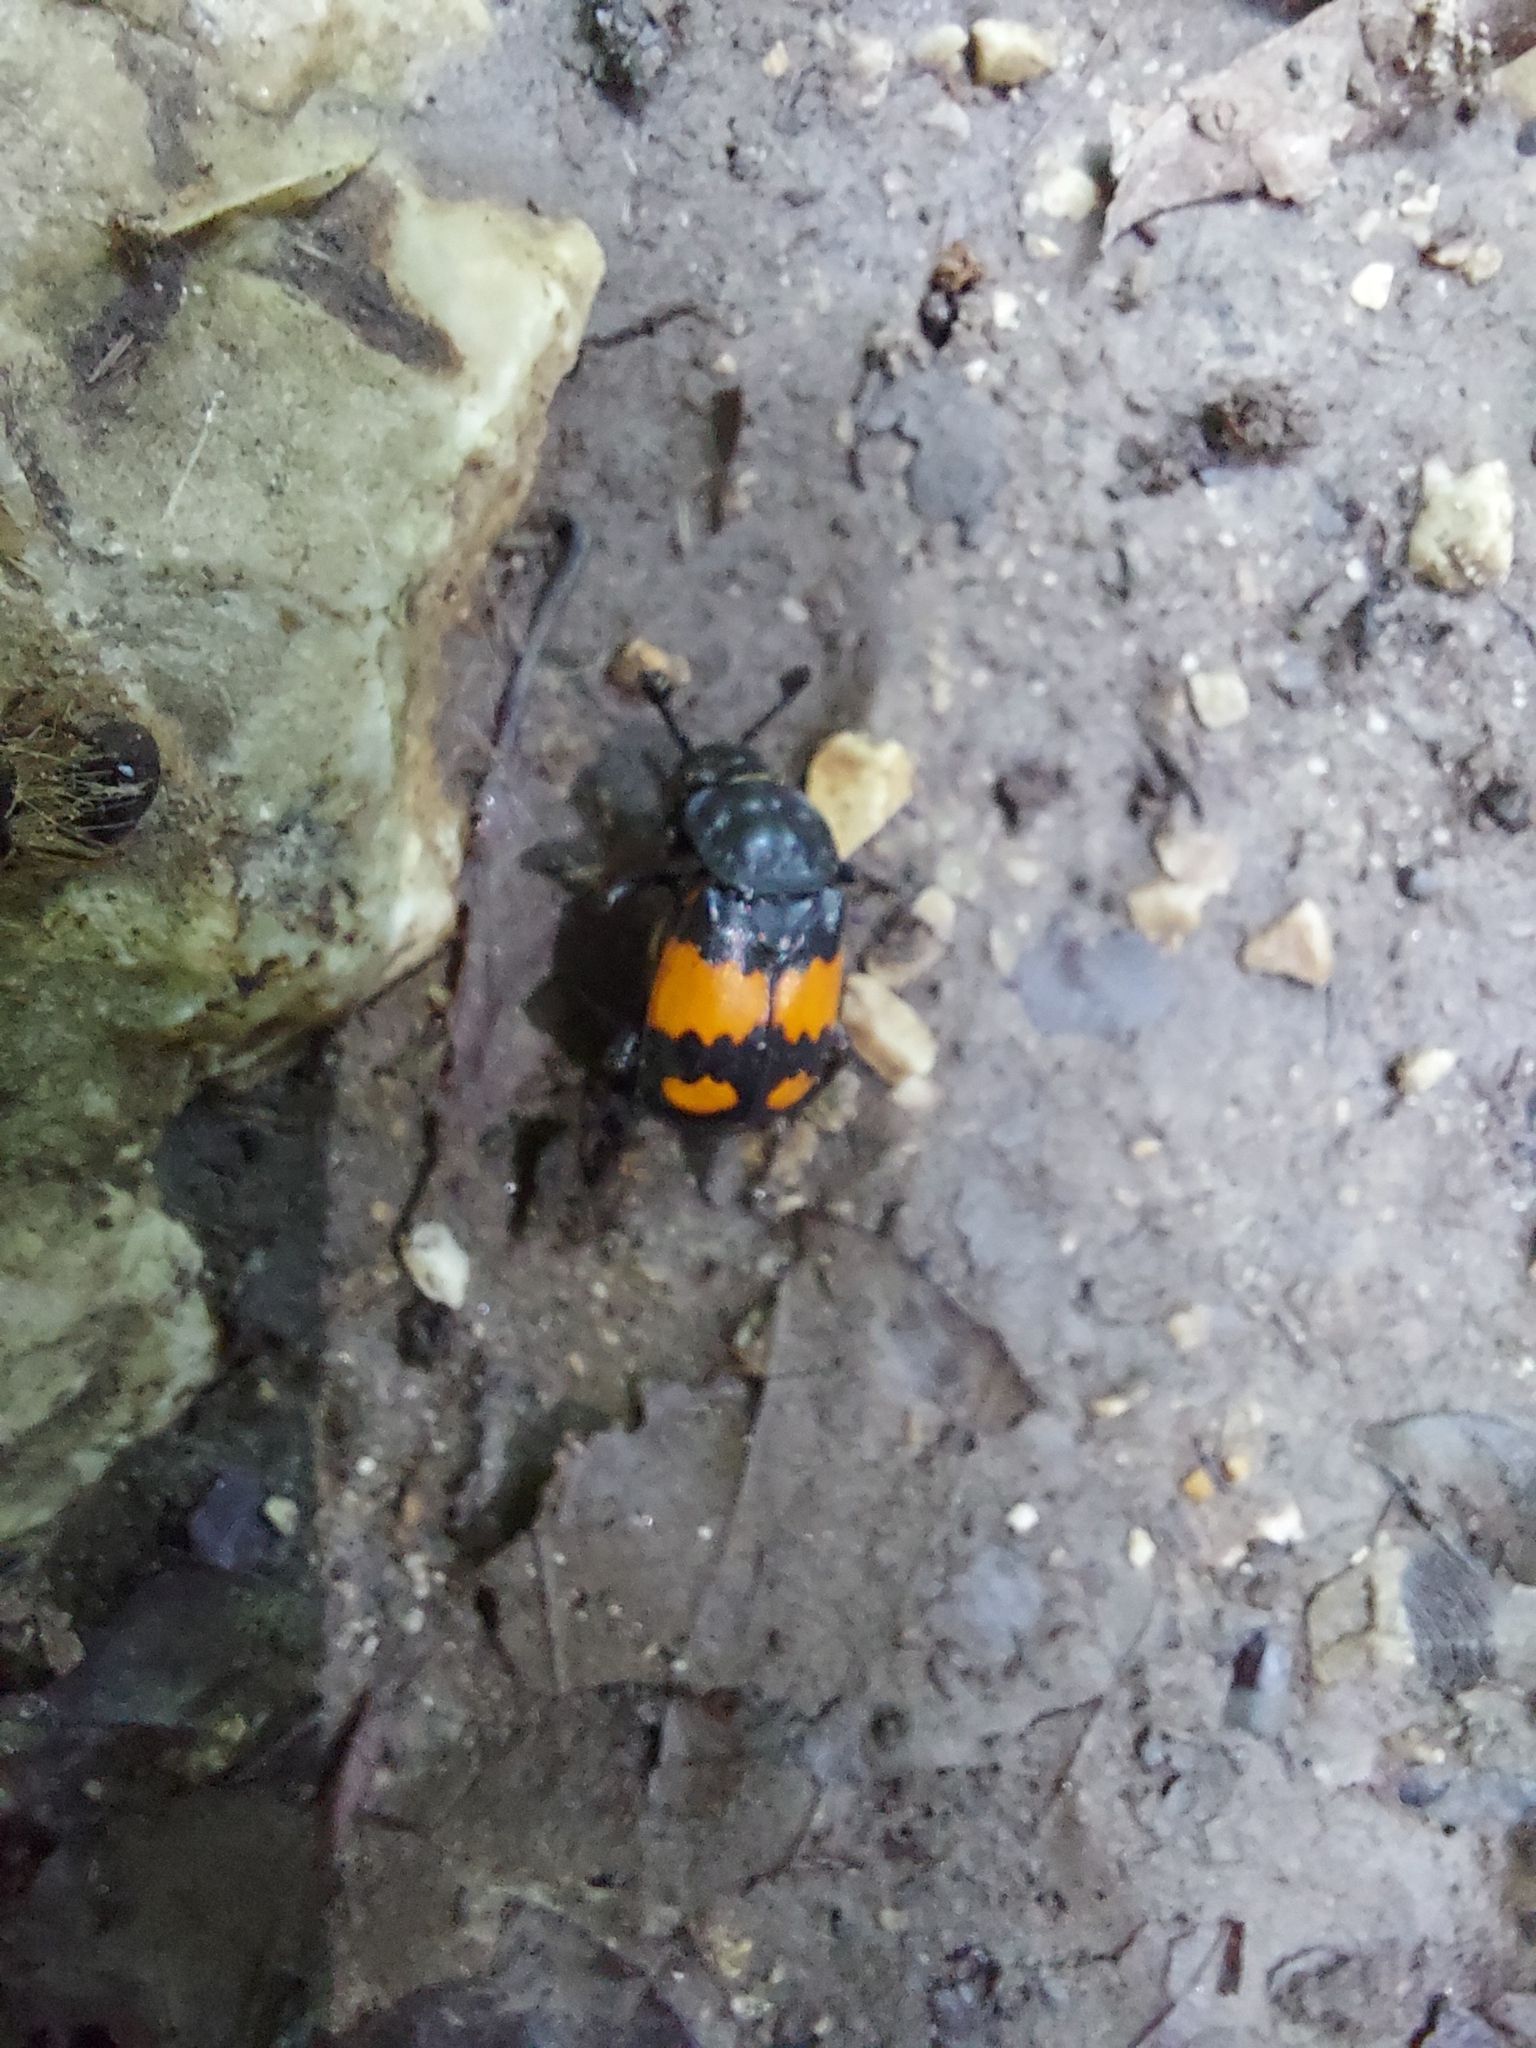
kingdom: Animalia
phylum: Arthropoda
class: Insecta
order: Coleoptera
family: Staphylinidae
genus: Nicrophorus
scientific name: Nicrophorus vespilloides
